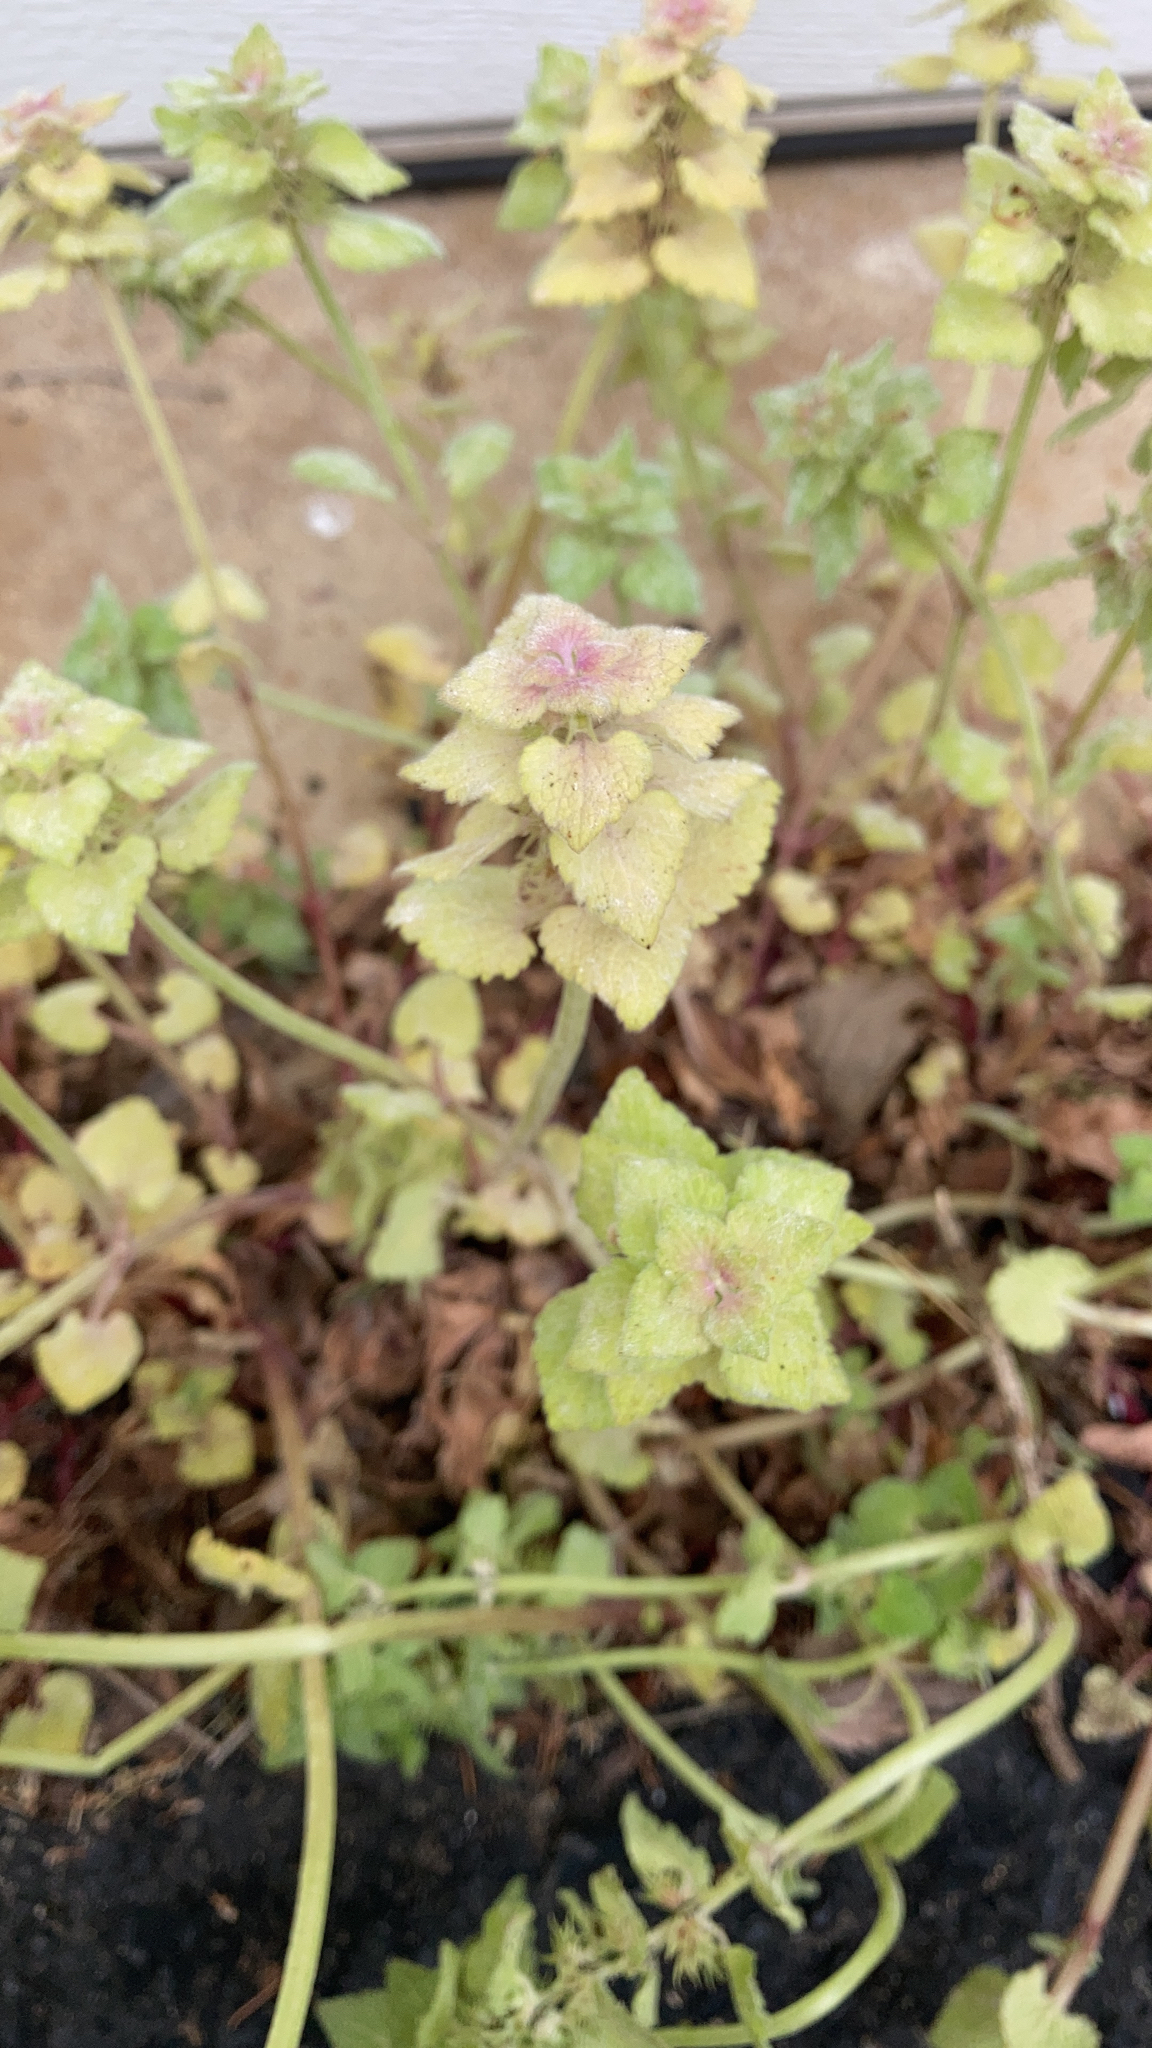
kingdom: Plantae
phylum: Tracheophyta
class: Magnoliopsida
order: Lamiales
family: Lamiaceae
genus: Lamium
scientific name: Lamium purpureum
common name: Red dead-nettle
